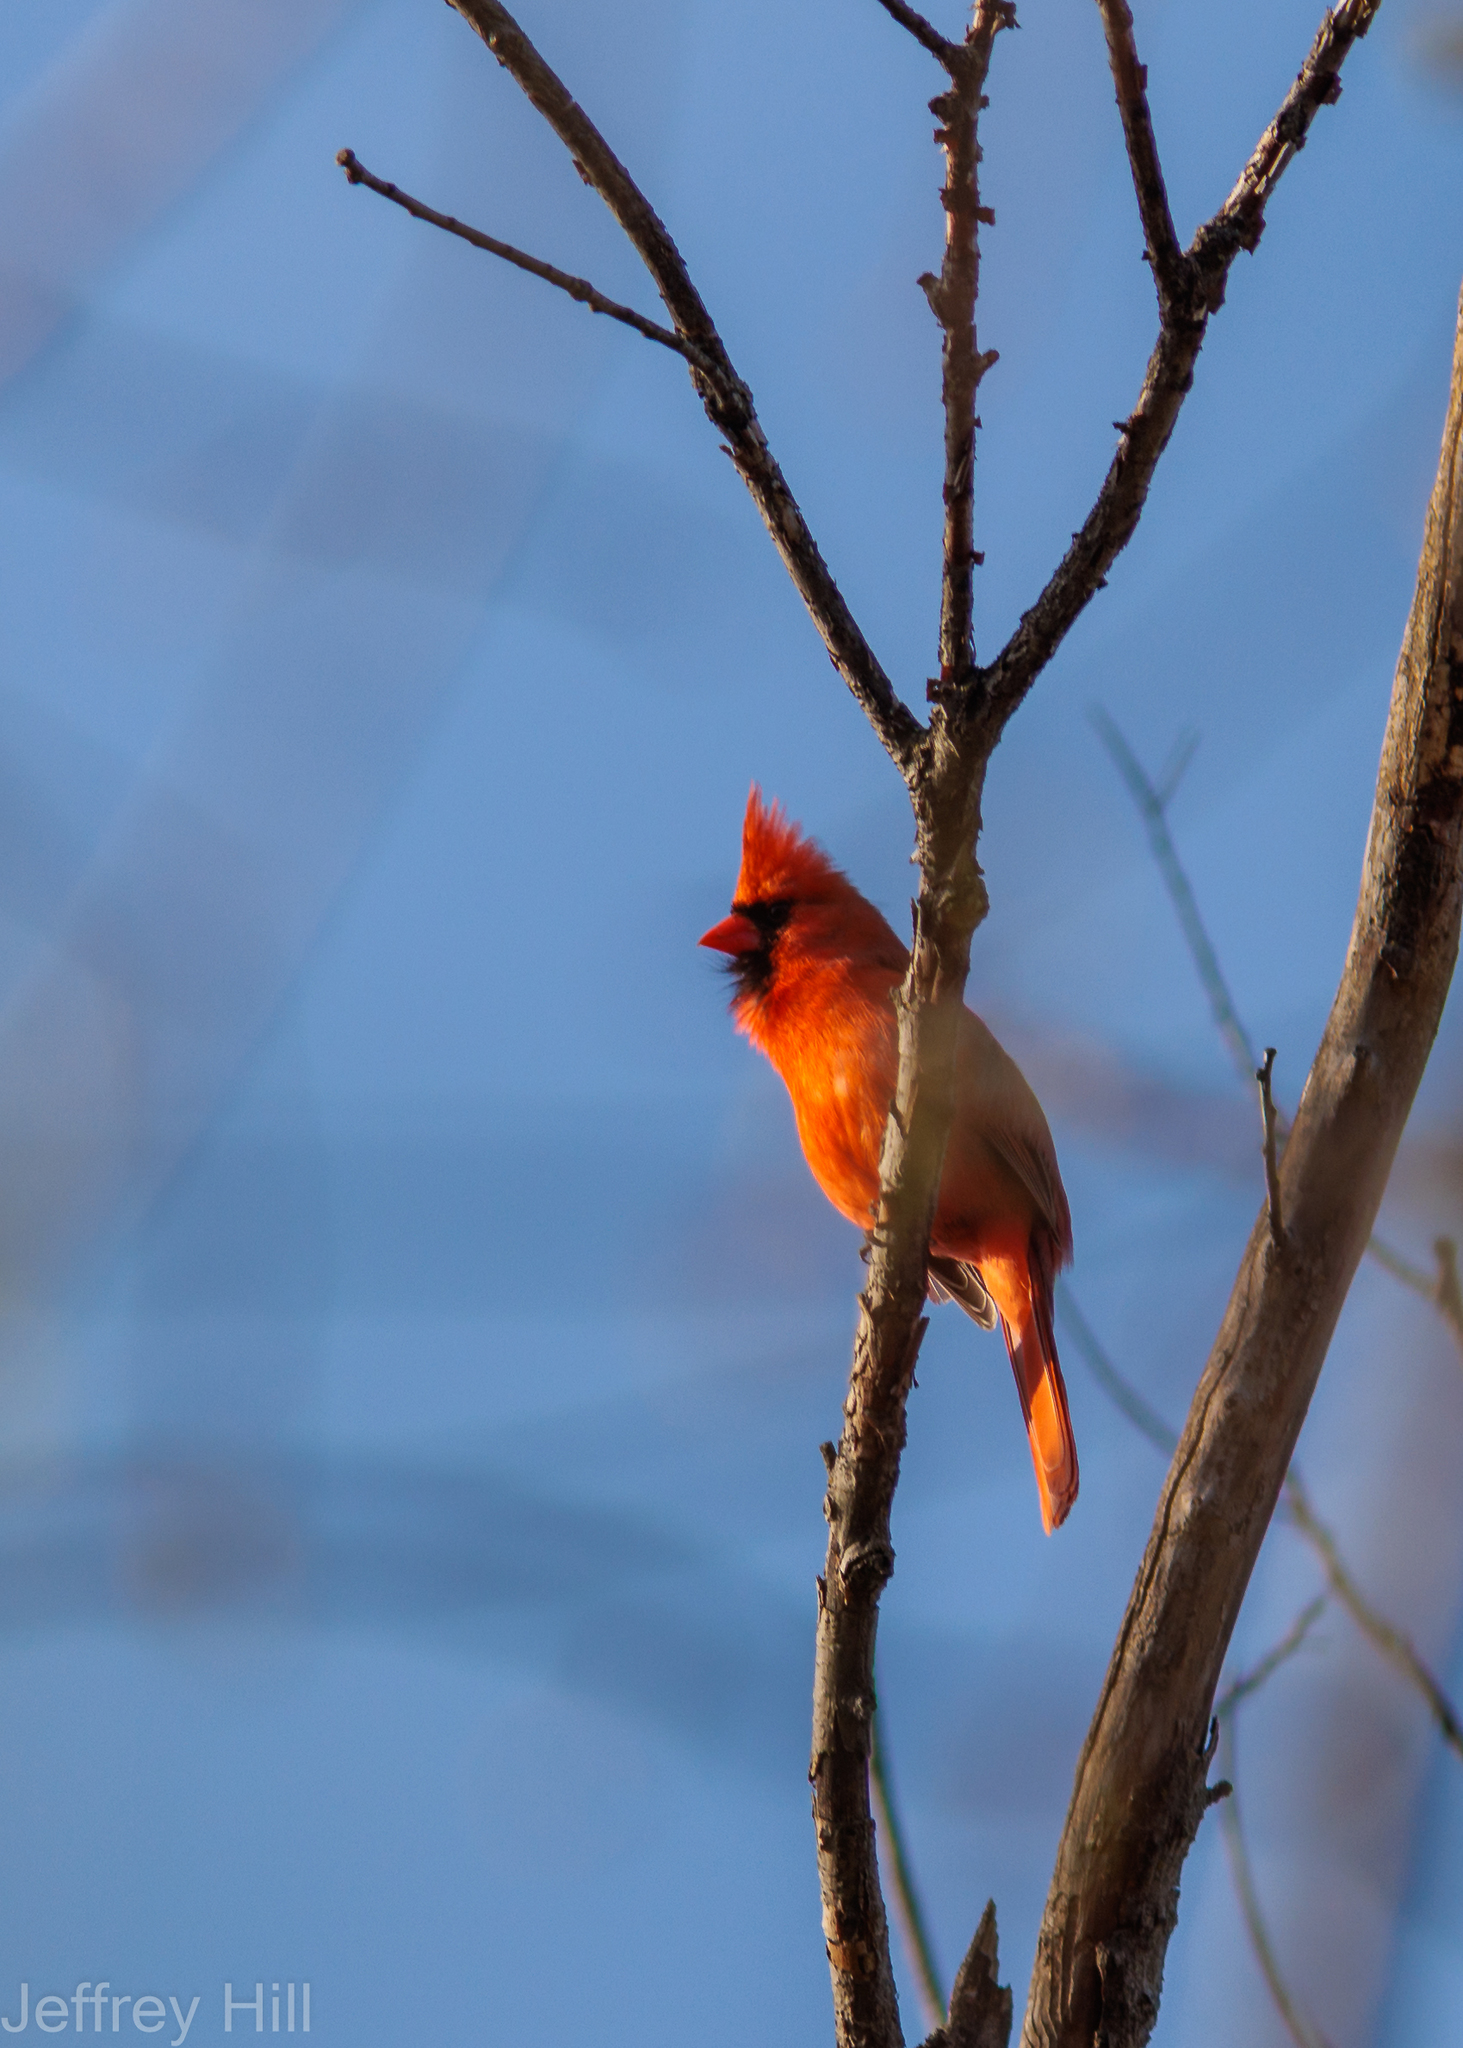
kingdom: Animalia
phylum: Chordata
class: Aves
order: Passeriformes
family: Cardinalidae
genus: Cardinalis
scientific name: Cardinalis cardinalis
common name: Northern cardinal
